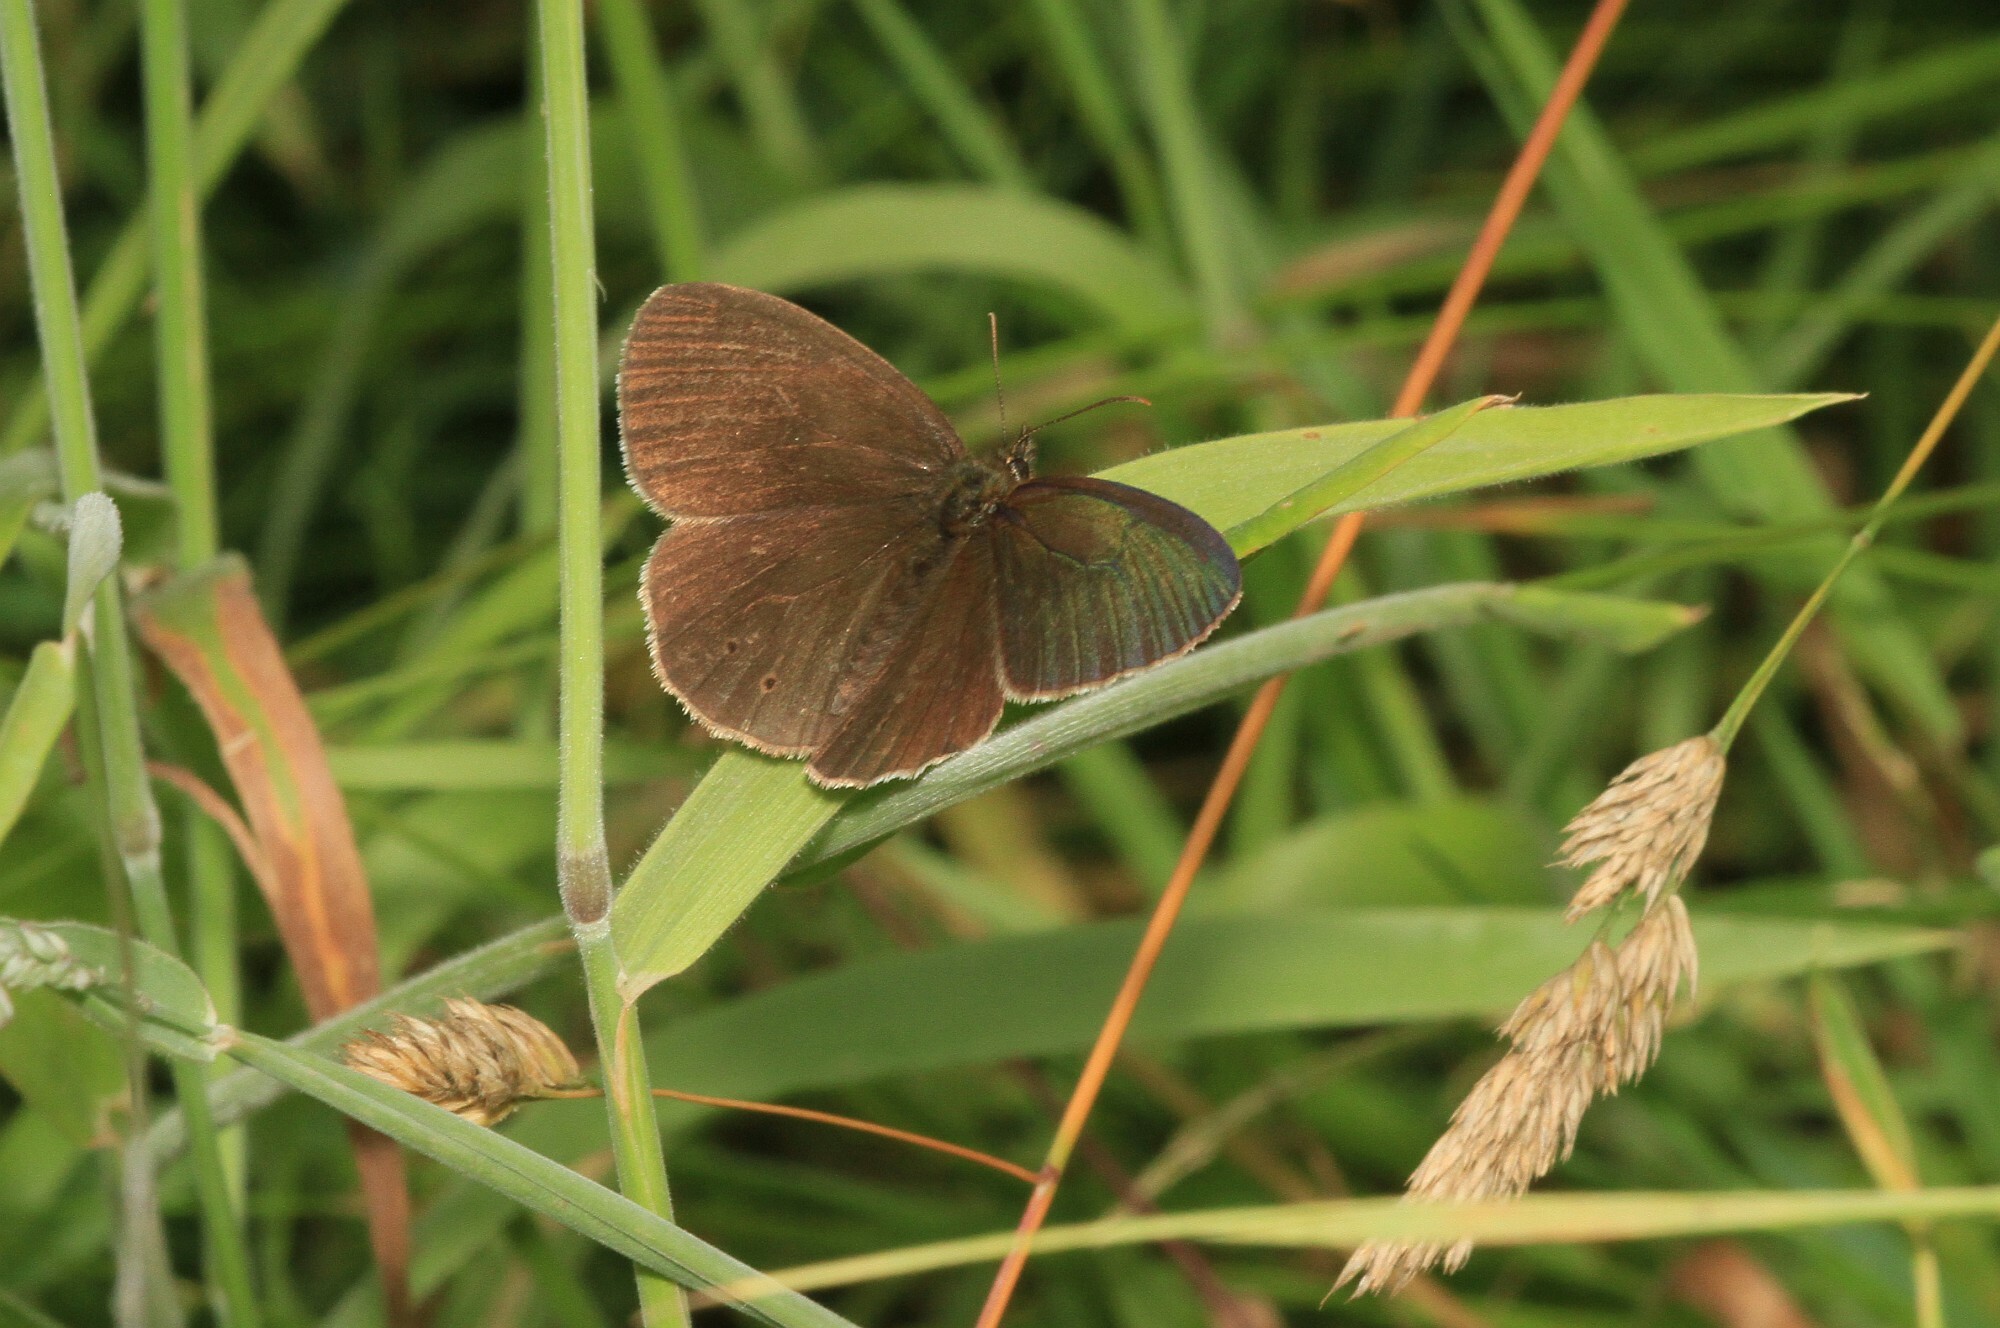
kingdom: Animalia
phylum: Arthropoda
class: Insecta
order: Lepidoptera
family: Nymphalidae
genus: Aphantopus
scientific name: Aphantopus hyperantus
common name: Ringlet
